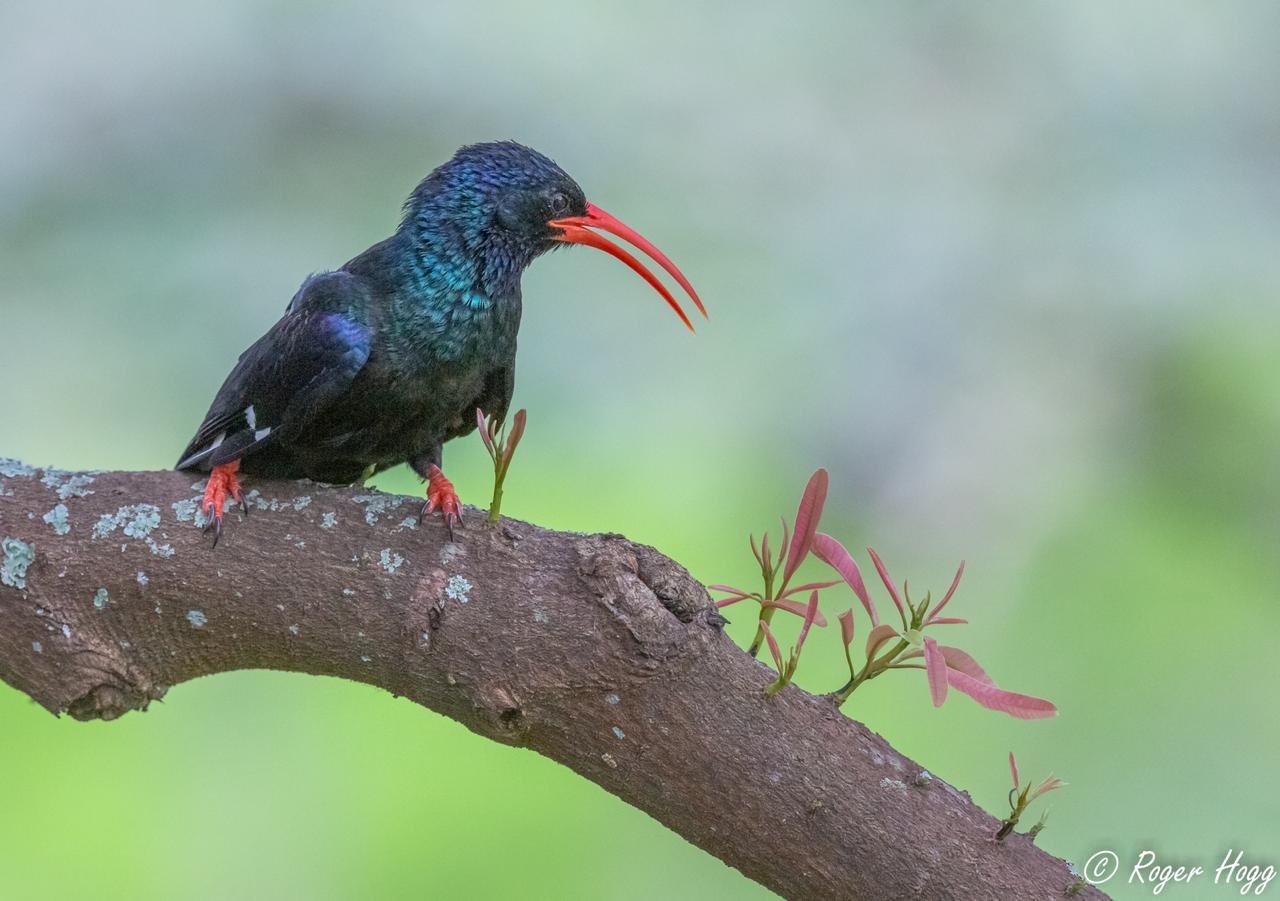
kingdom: Animalia
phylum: Chordata
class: Aves
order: Bucerotiformes
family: Phoeniculidae
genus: Phoeniculus
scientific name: Phoeniculus purpureus
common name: Green woodhoopoe
